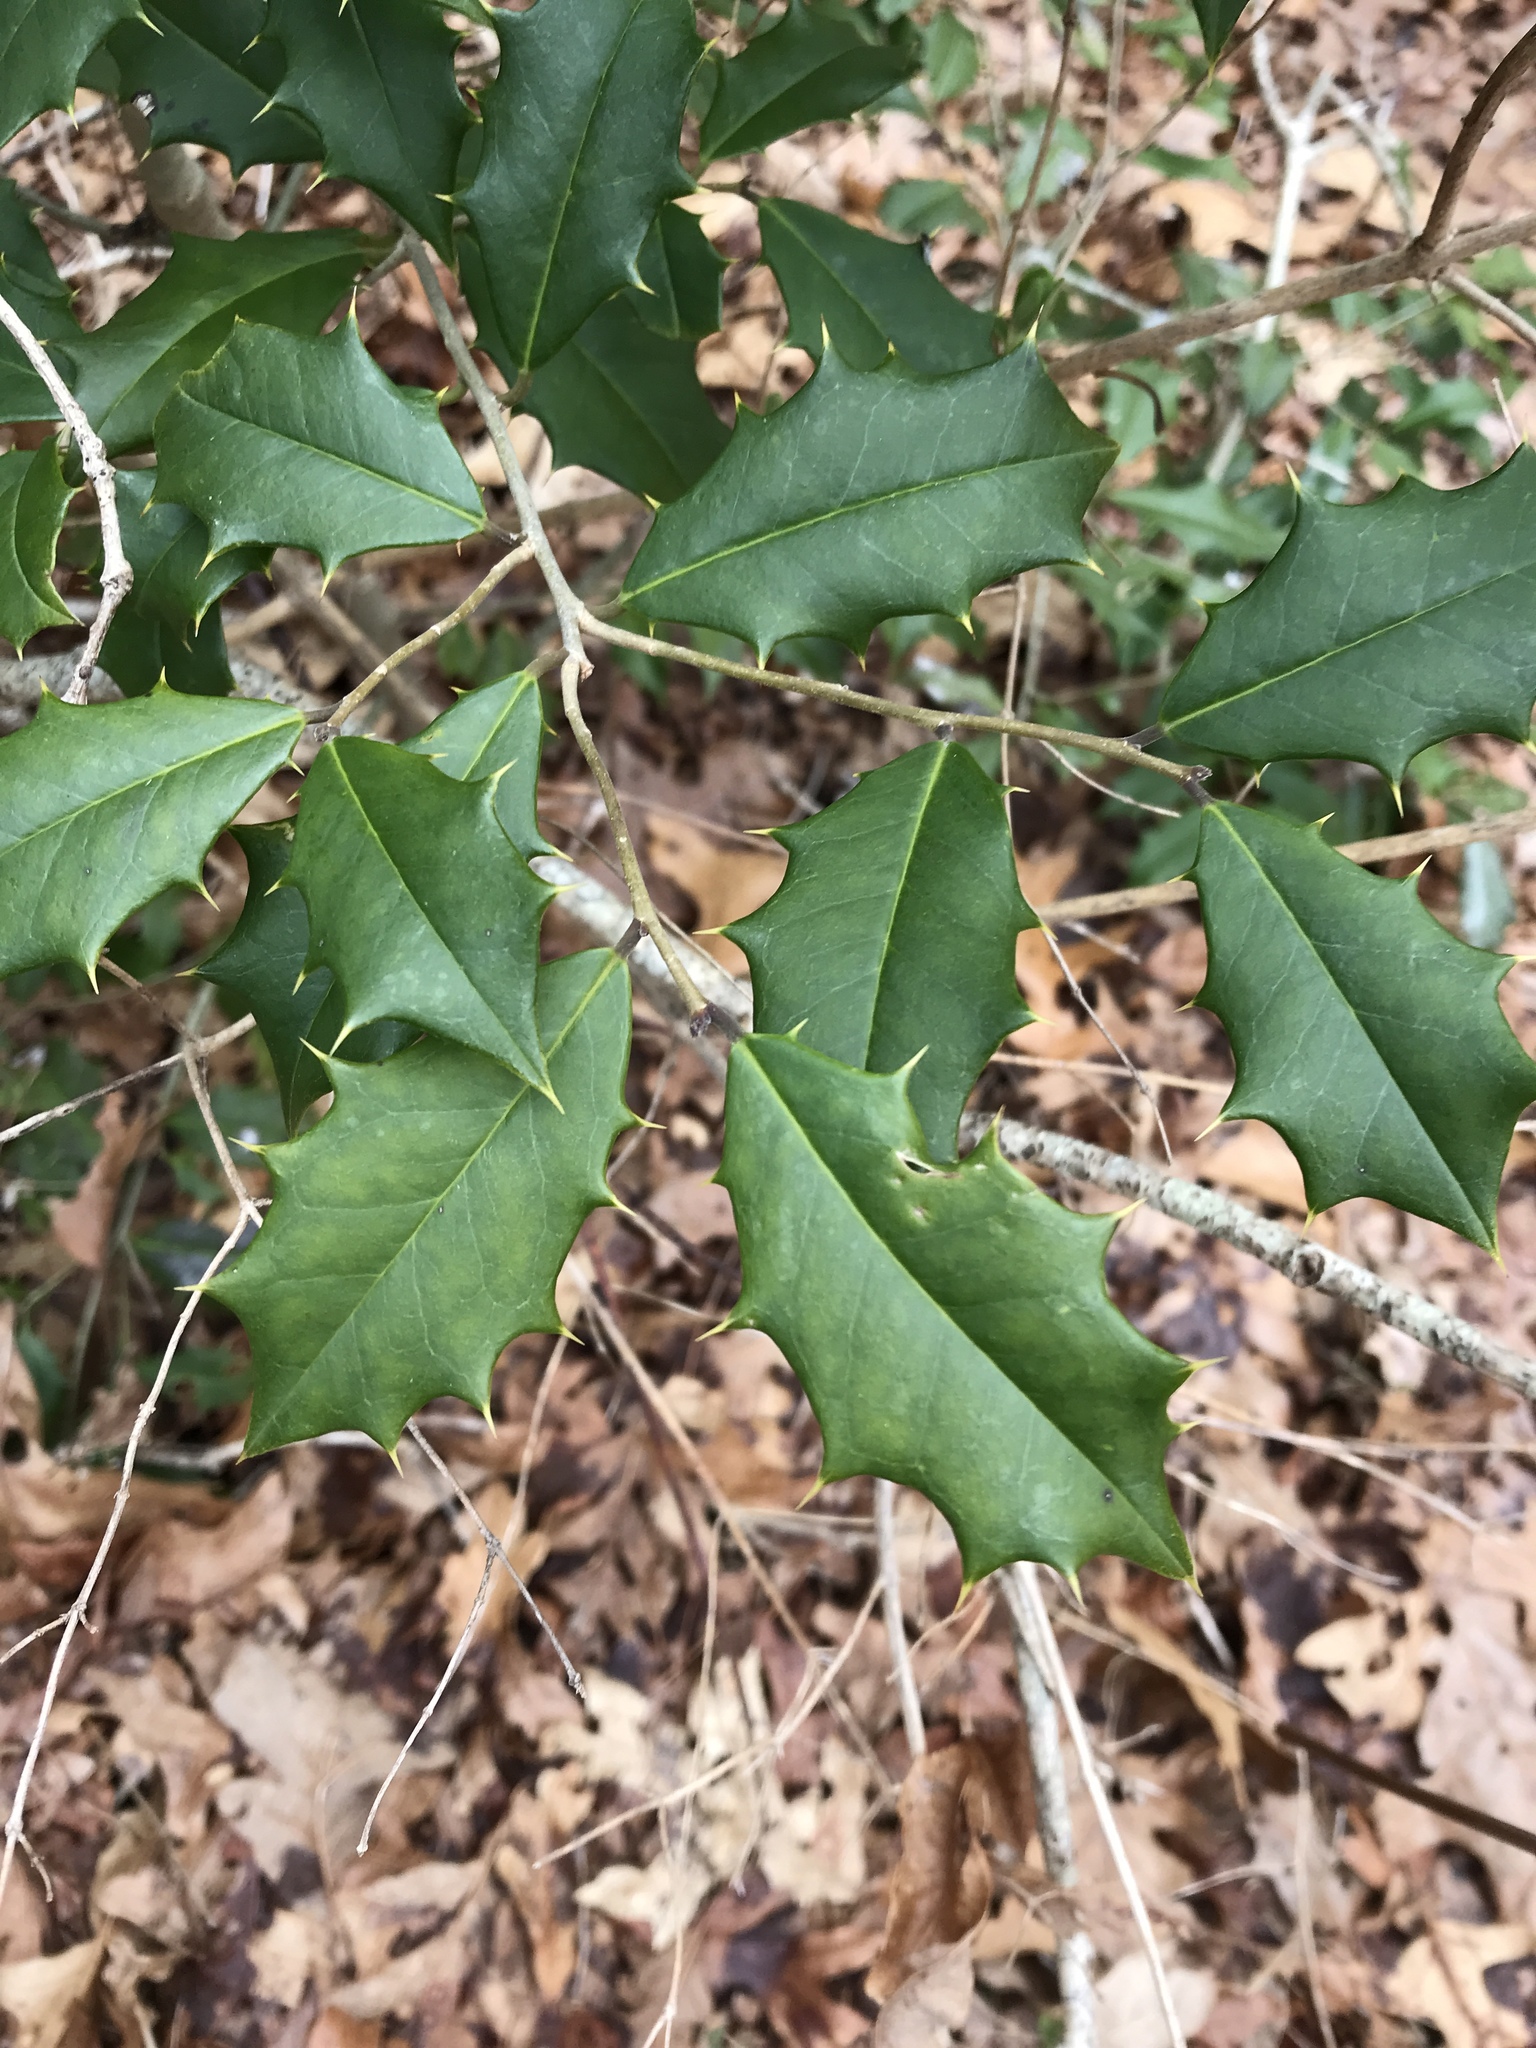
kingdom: Plantae
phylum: Tracheophyta
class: Magnoliopsida
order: Aquifoliales
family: Aquifoliaceae
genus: Ilex
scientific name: Ilex opaca
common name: American holly
